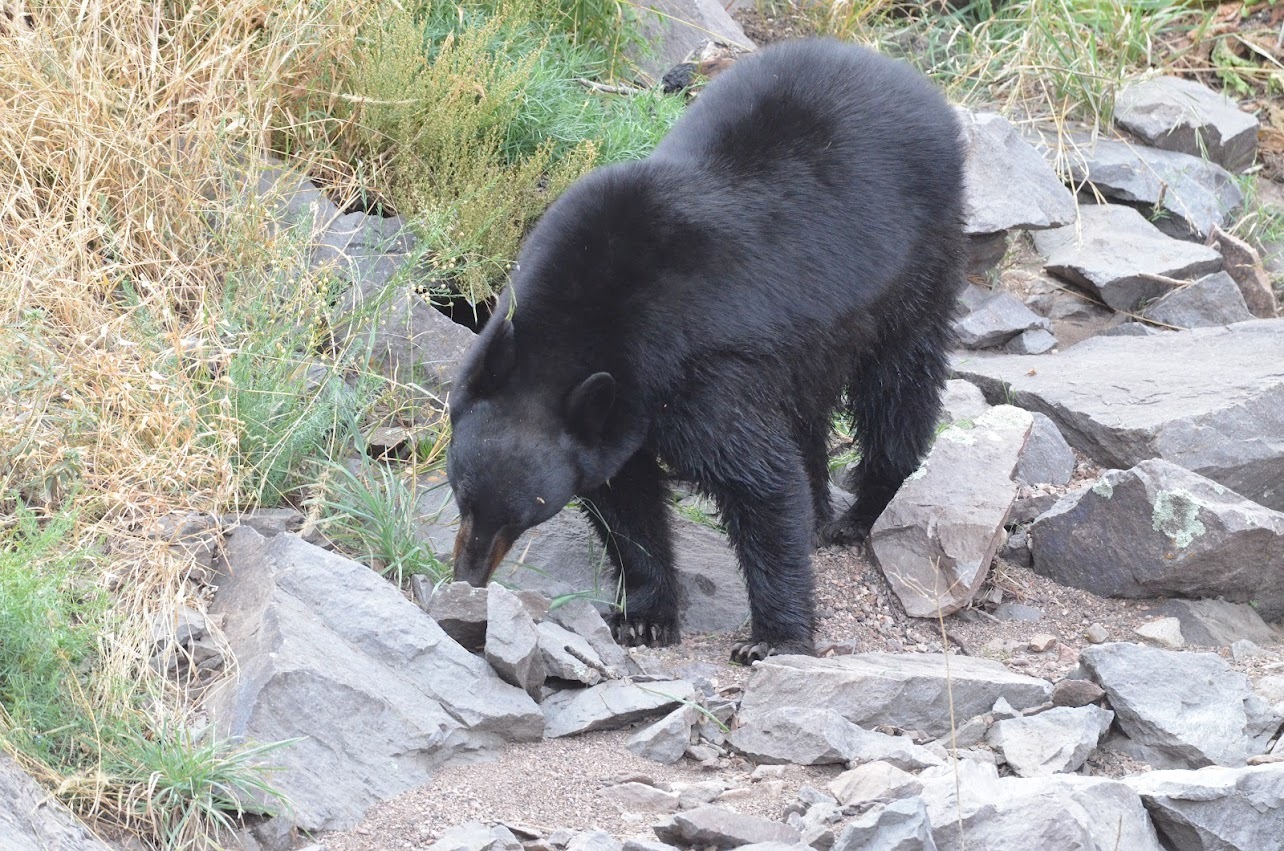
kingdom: Animalia
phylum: Chordata
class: Mammalia
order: Carnivora
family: Ursidae
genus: Ursus
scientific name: Ursus americanus
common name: American black bear
